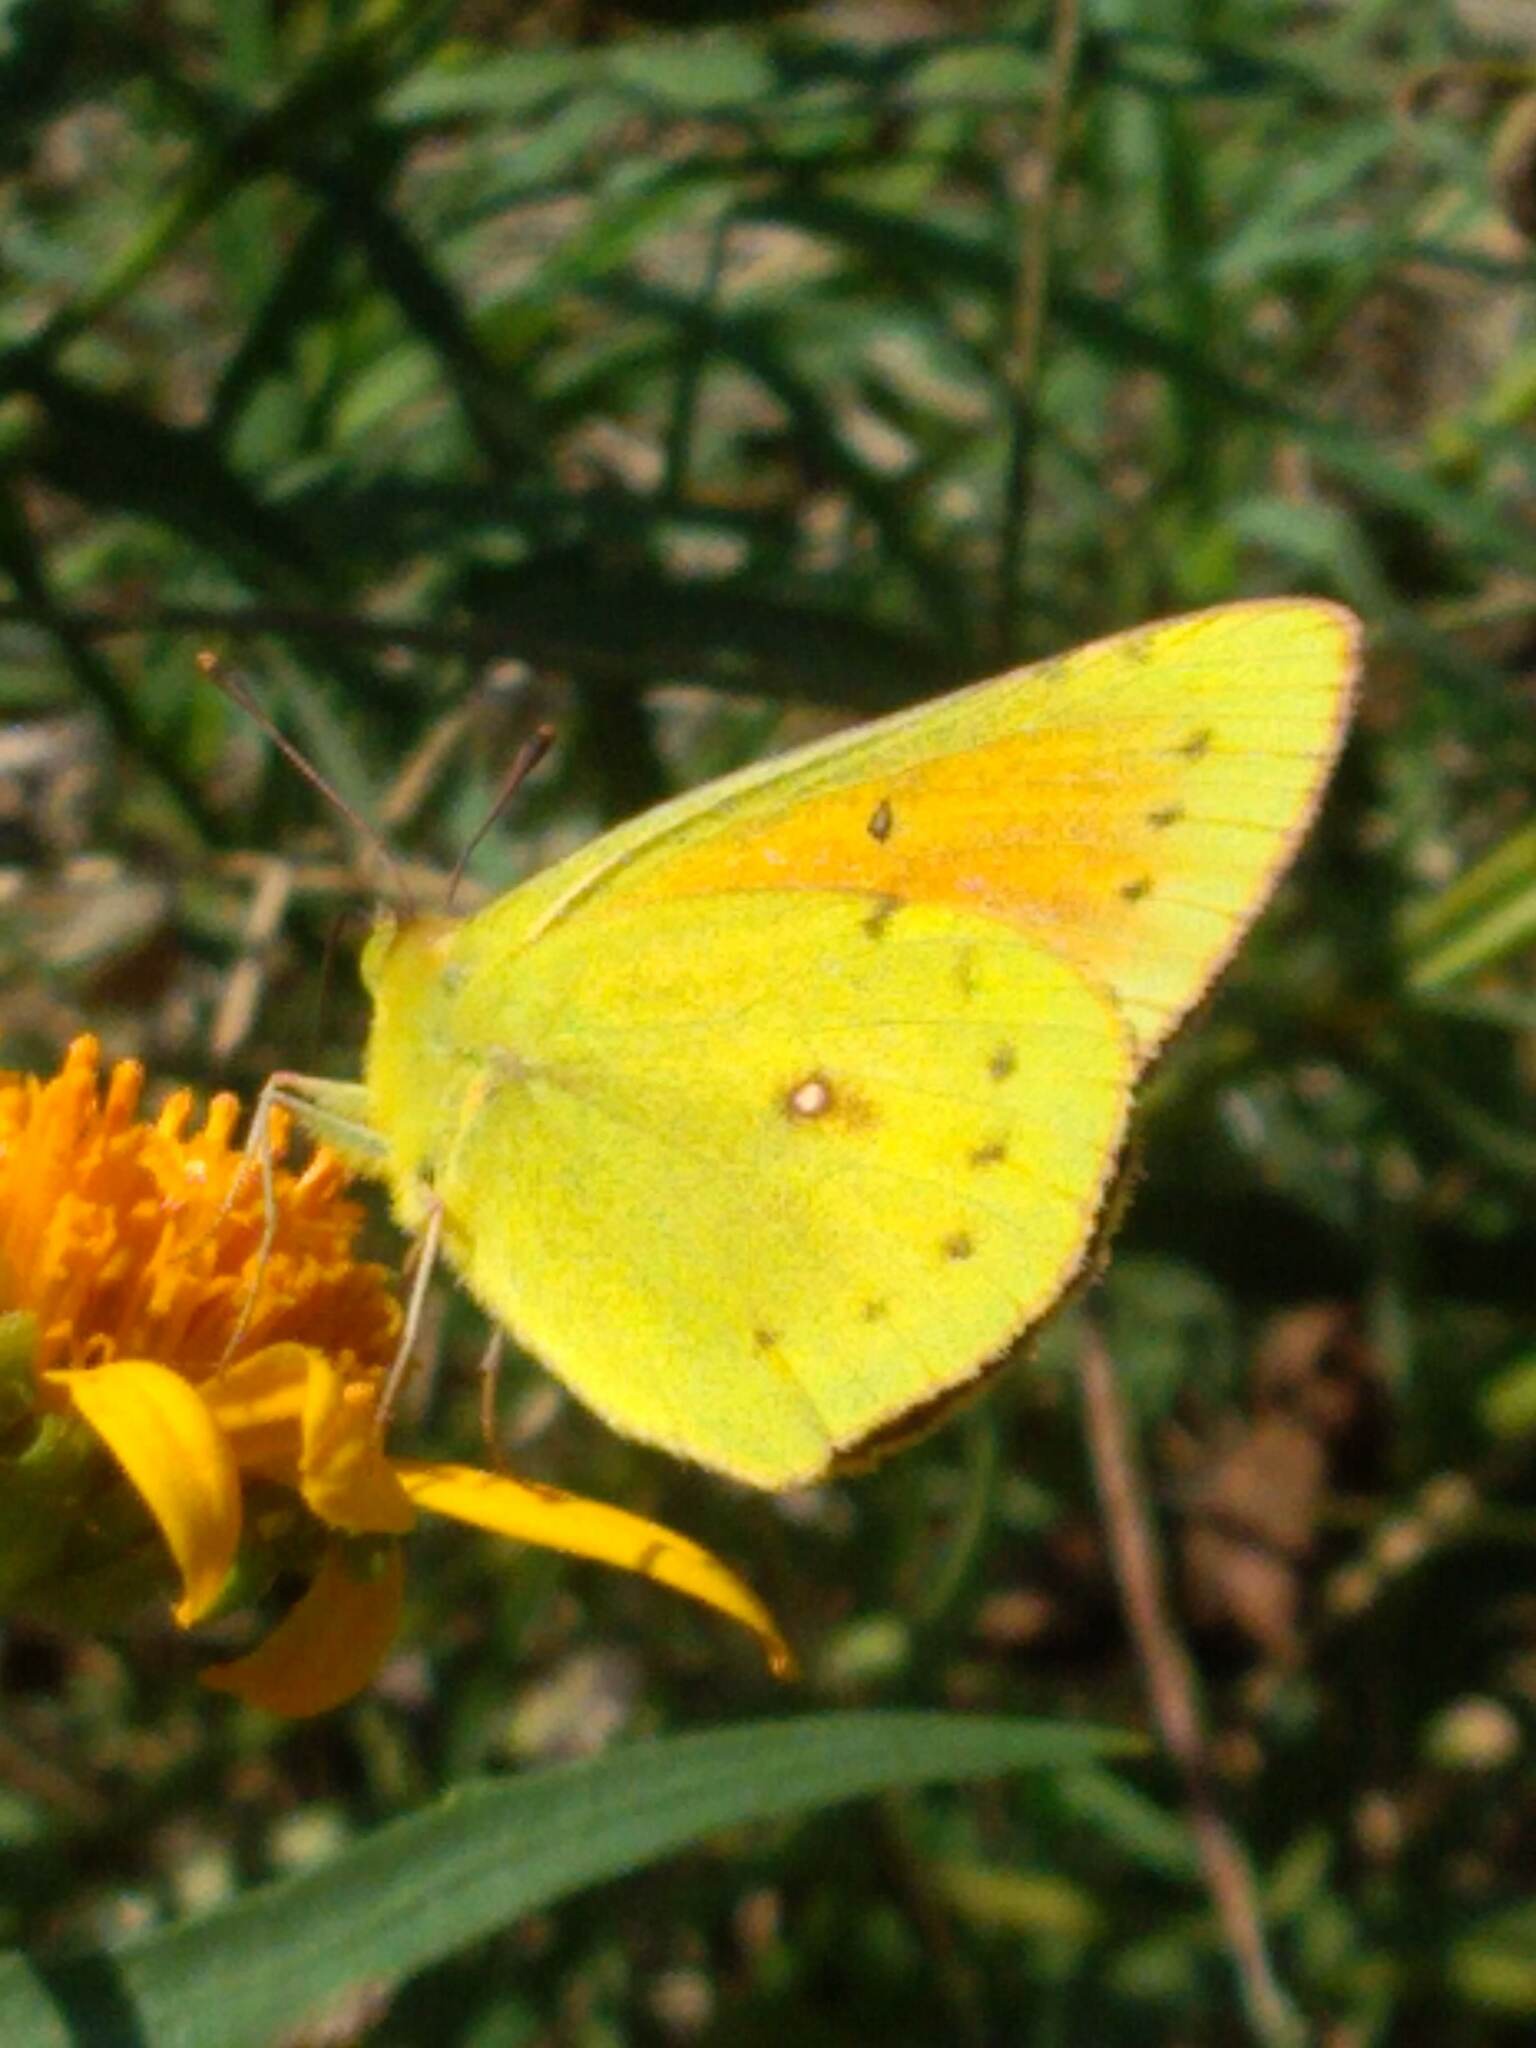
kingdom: Animalia
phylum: Arthropoda
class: Insecta
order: Lepidoptera
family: Pieridae
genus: Colias
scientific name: Colias lesbia
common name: Lesbia clouded yellow
